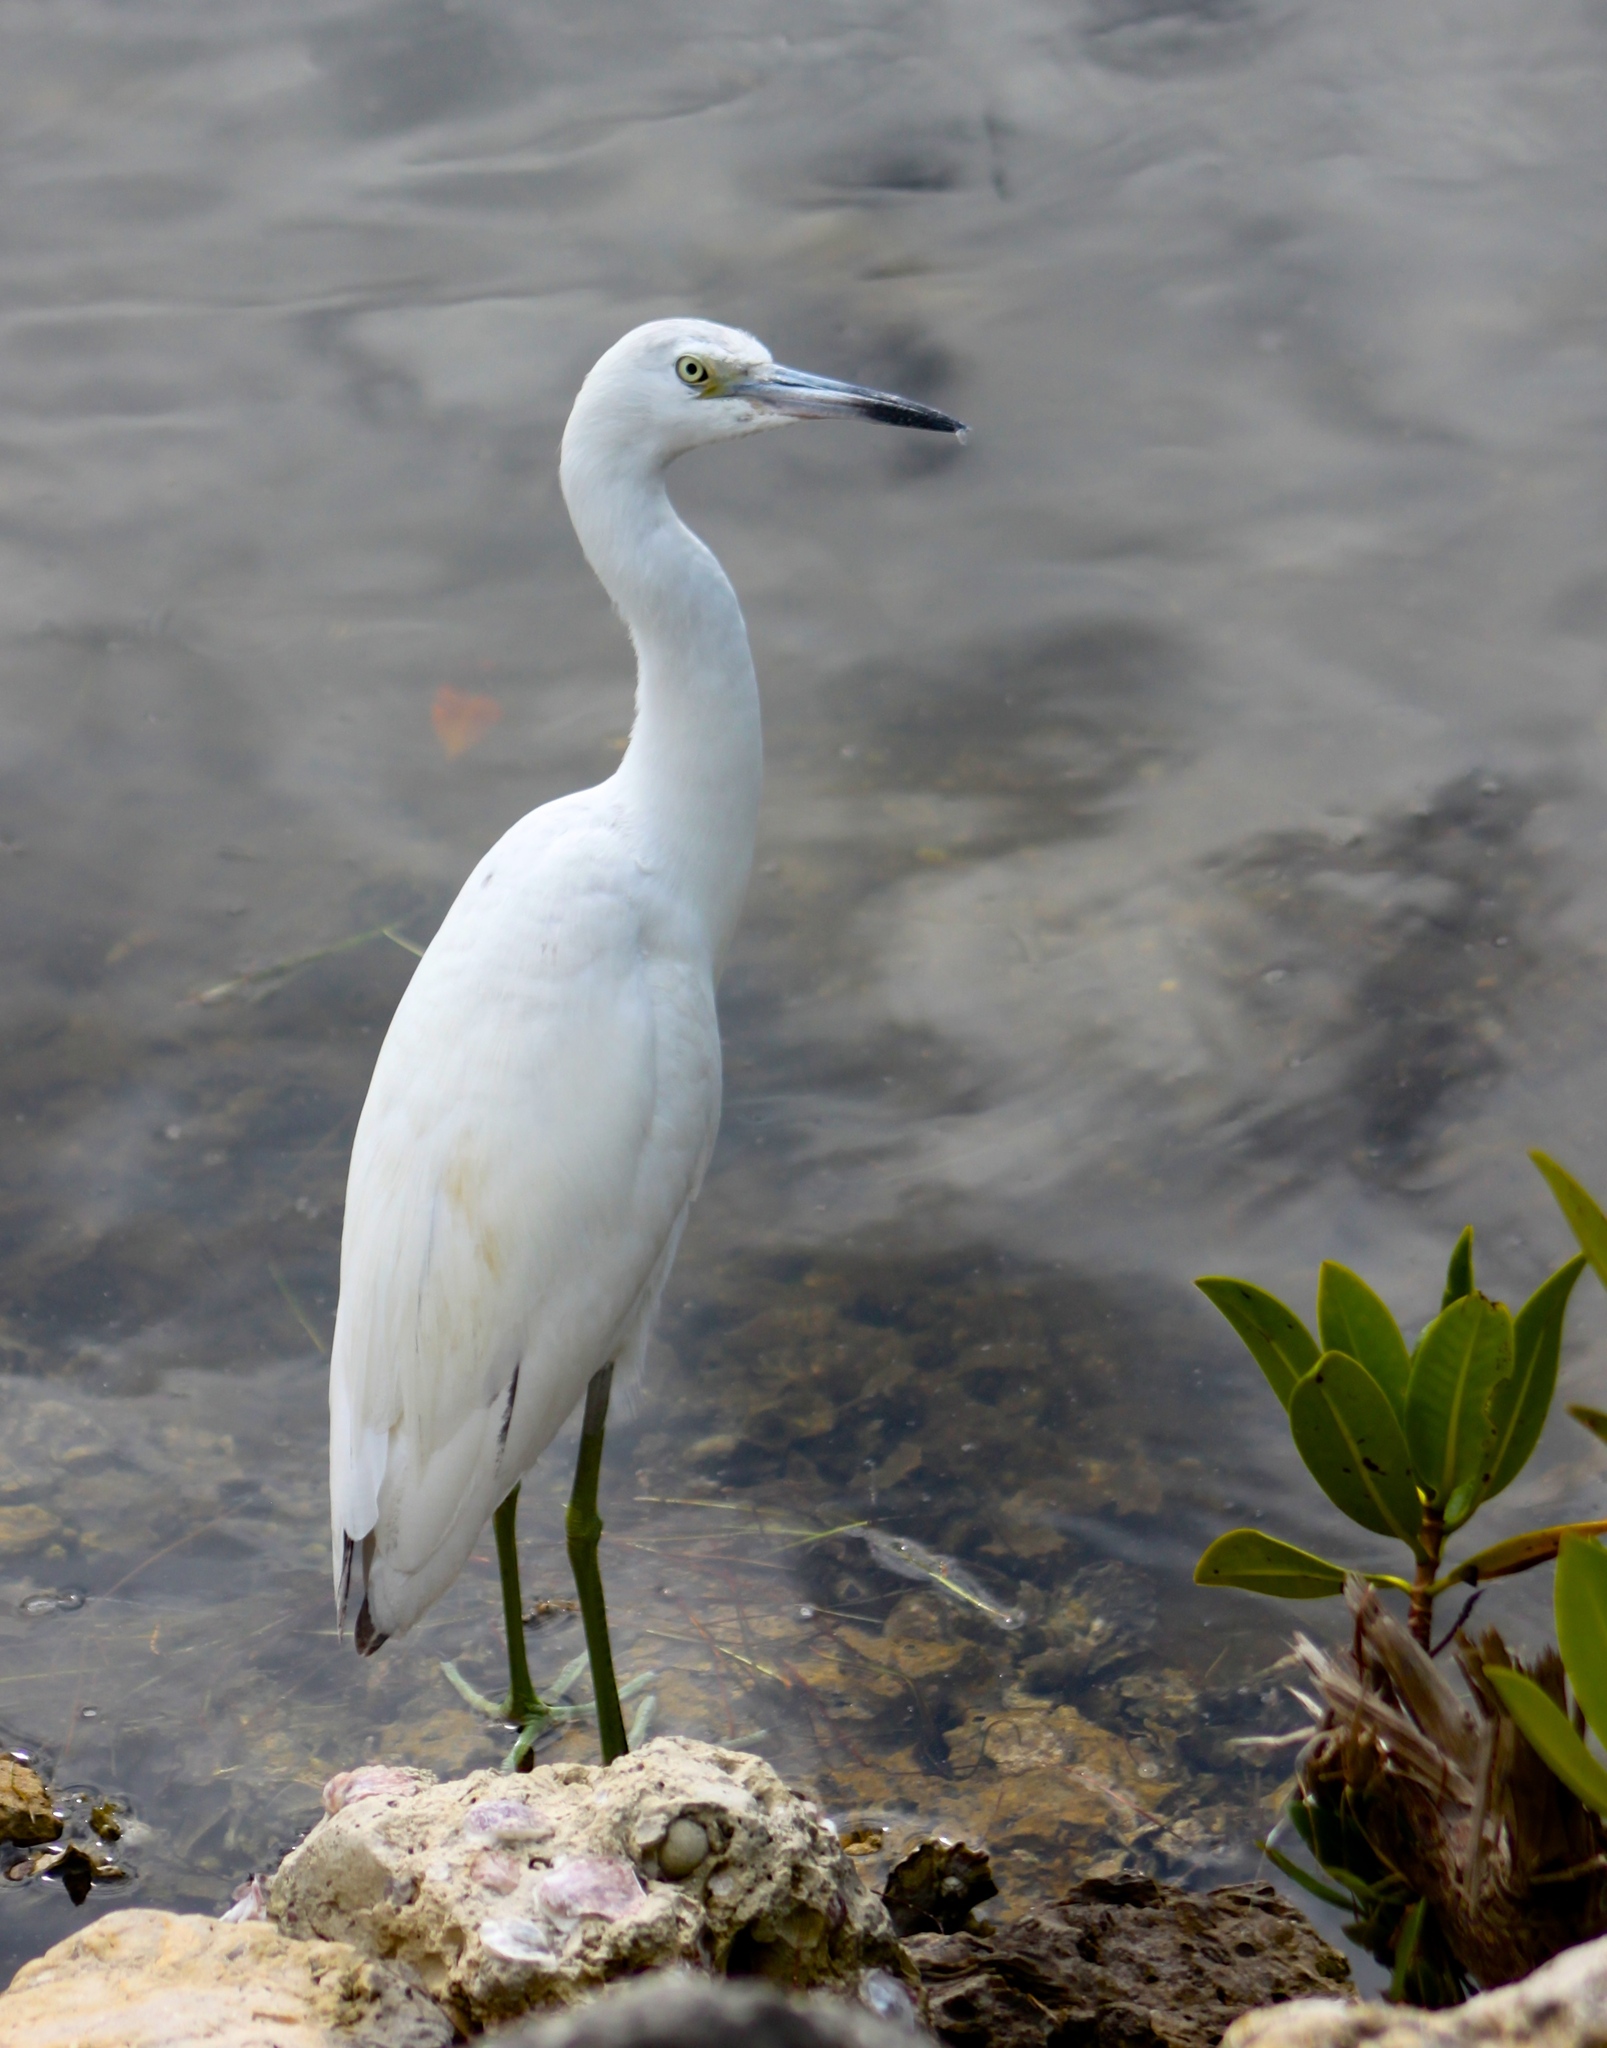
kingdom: Animalia
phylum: Chordata
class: Aves
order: Pelecaniformes
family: Ardeidae
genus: Egretta
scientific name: Egretta caerulea
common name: Little blue heron
